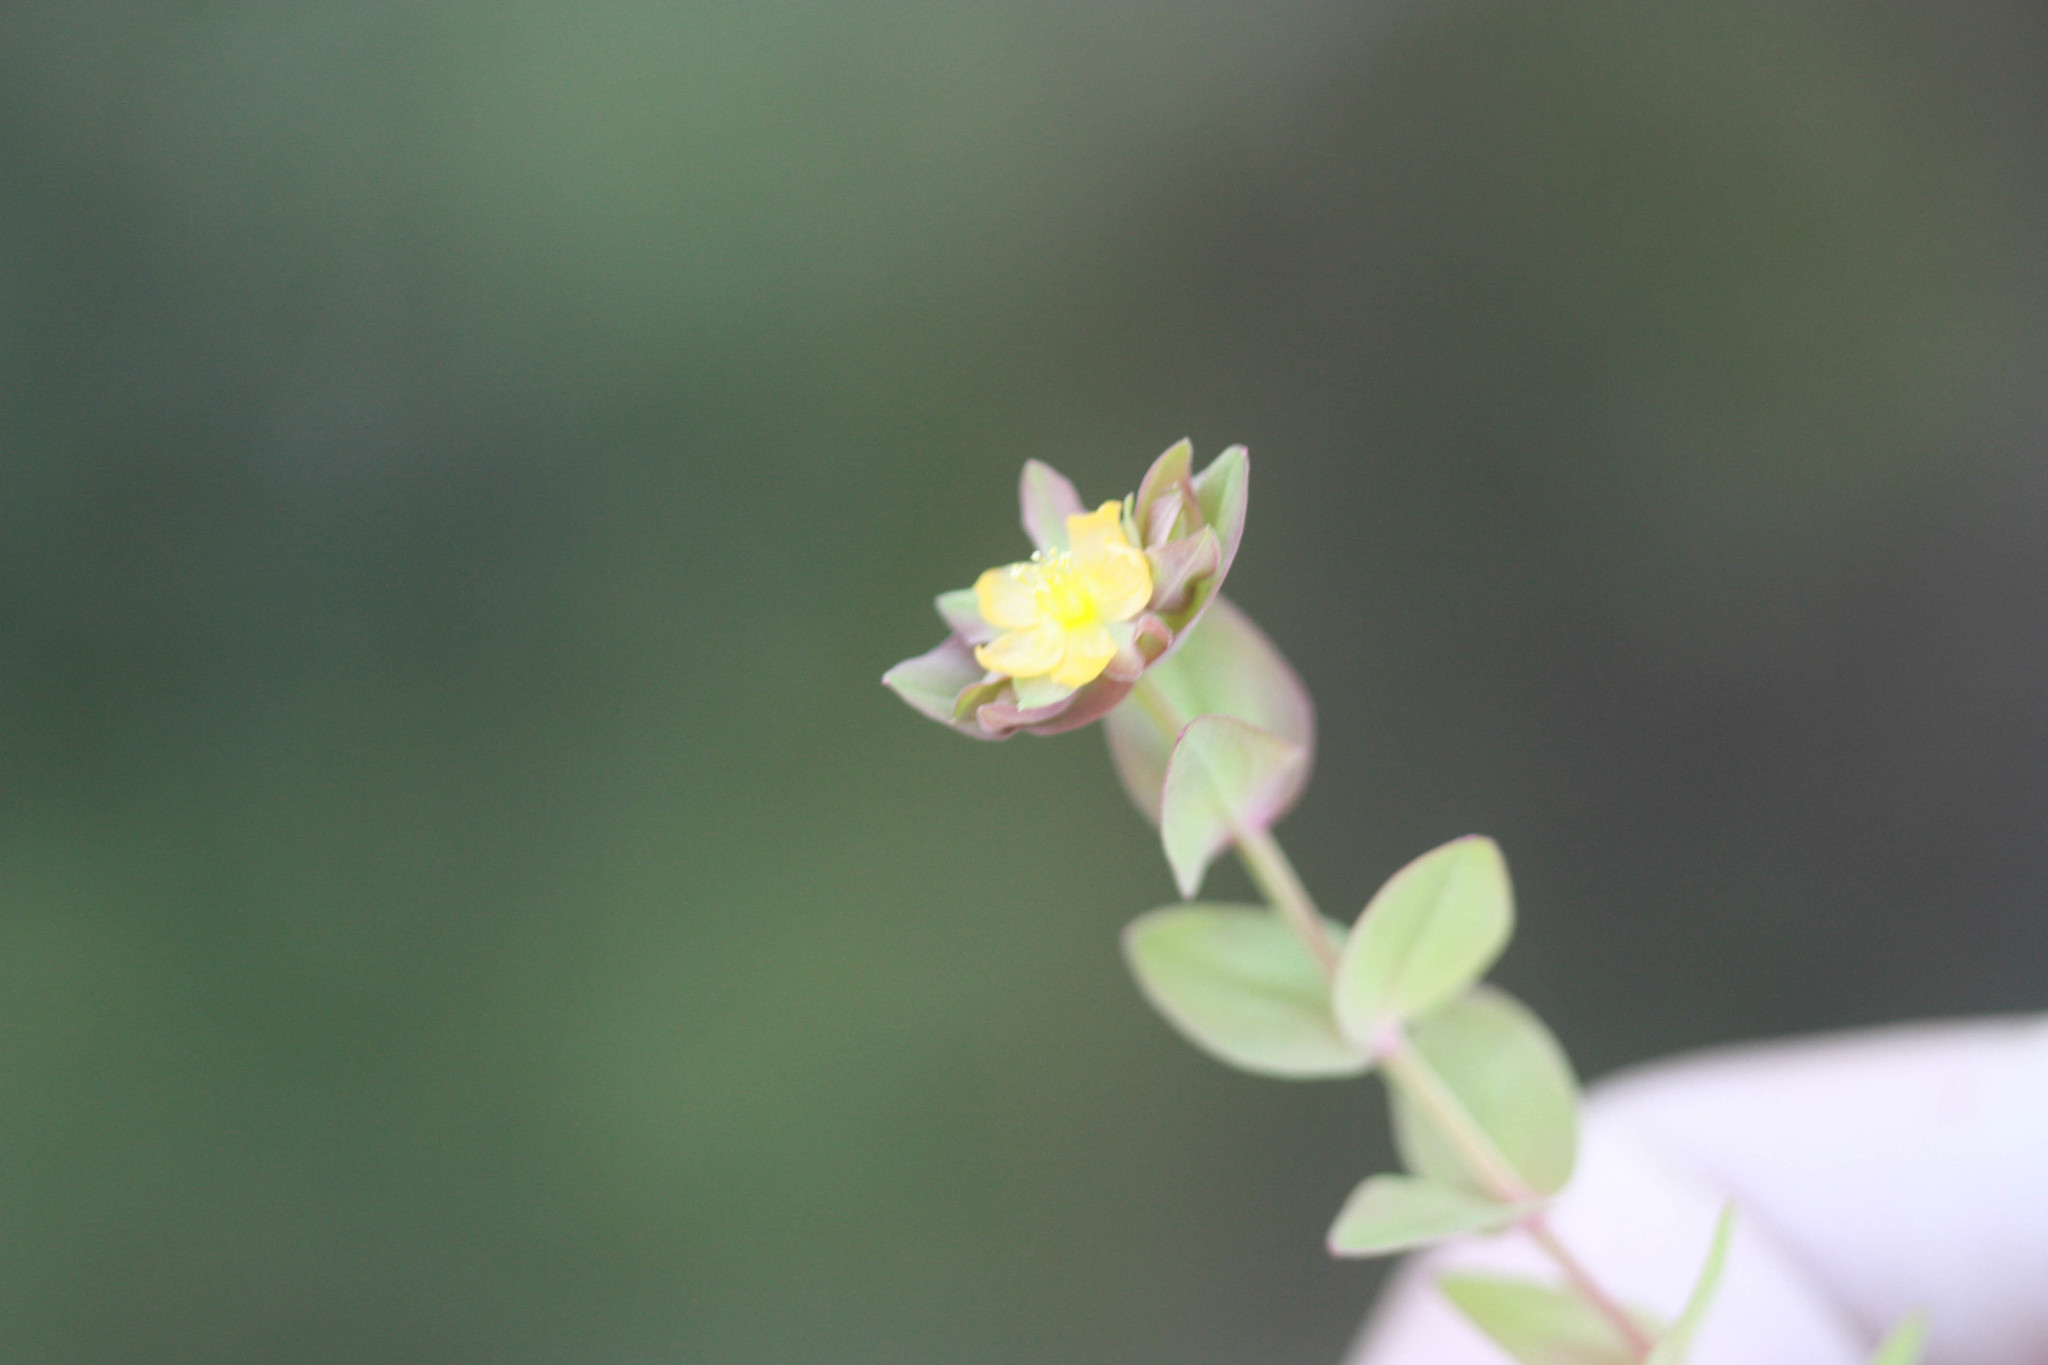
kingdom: Plantae
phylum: Tracheophyta
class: Magnoliopsida
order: Malpighiales
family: Hypericaceae
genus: Hypericum
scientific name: Hypericum anagalloides
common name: Bog st. john's-wort
